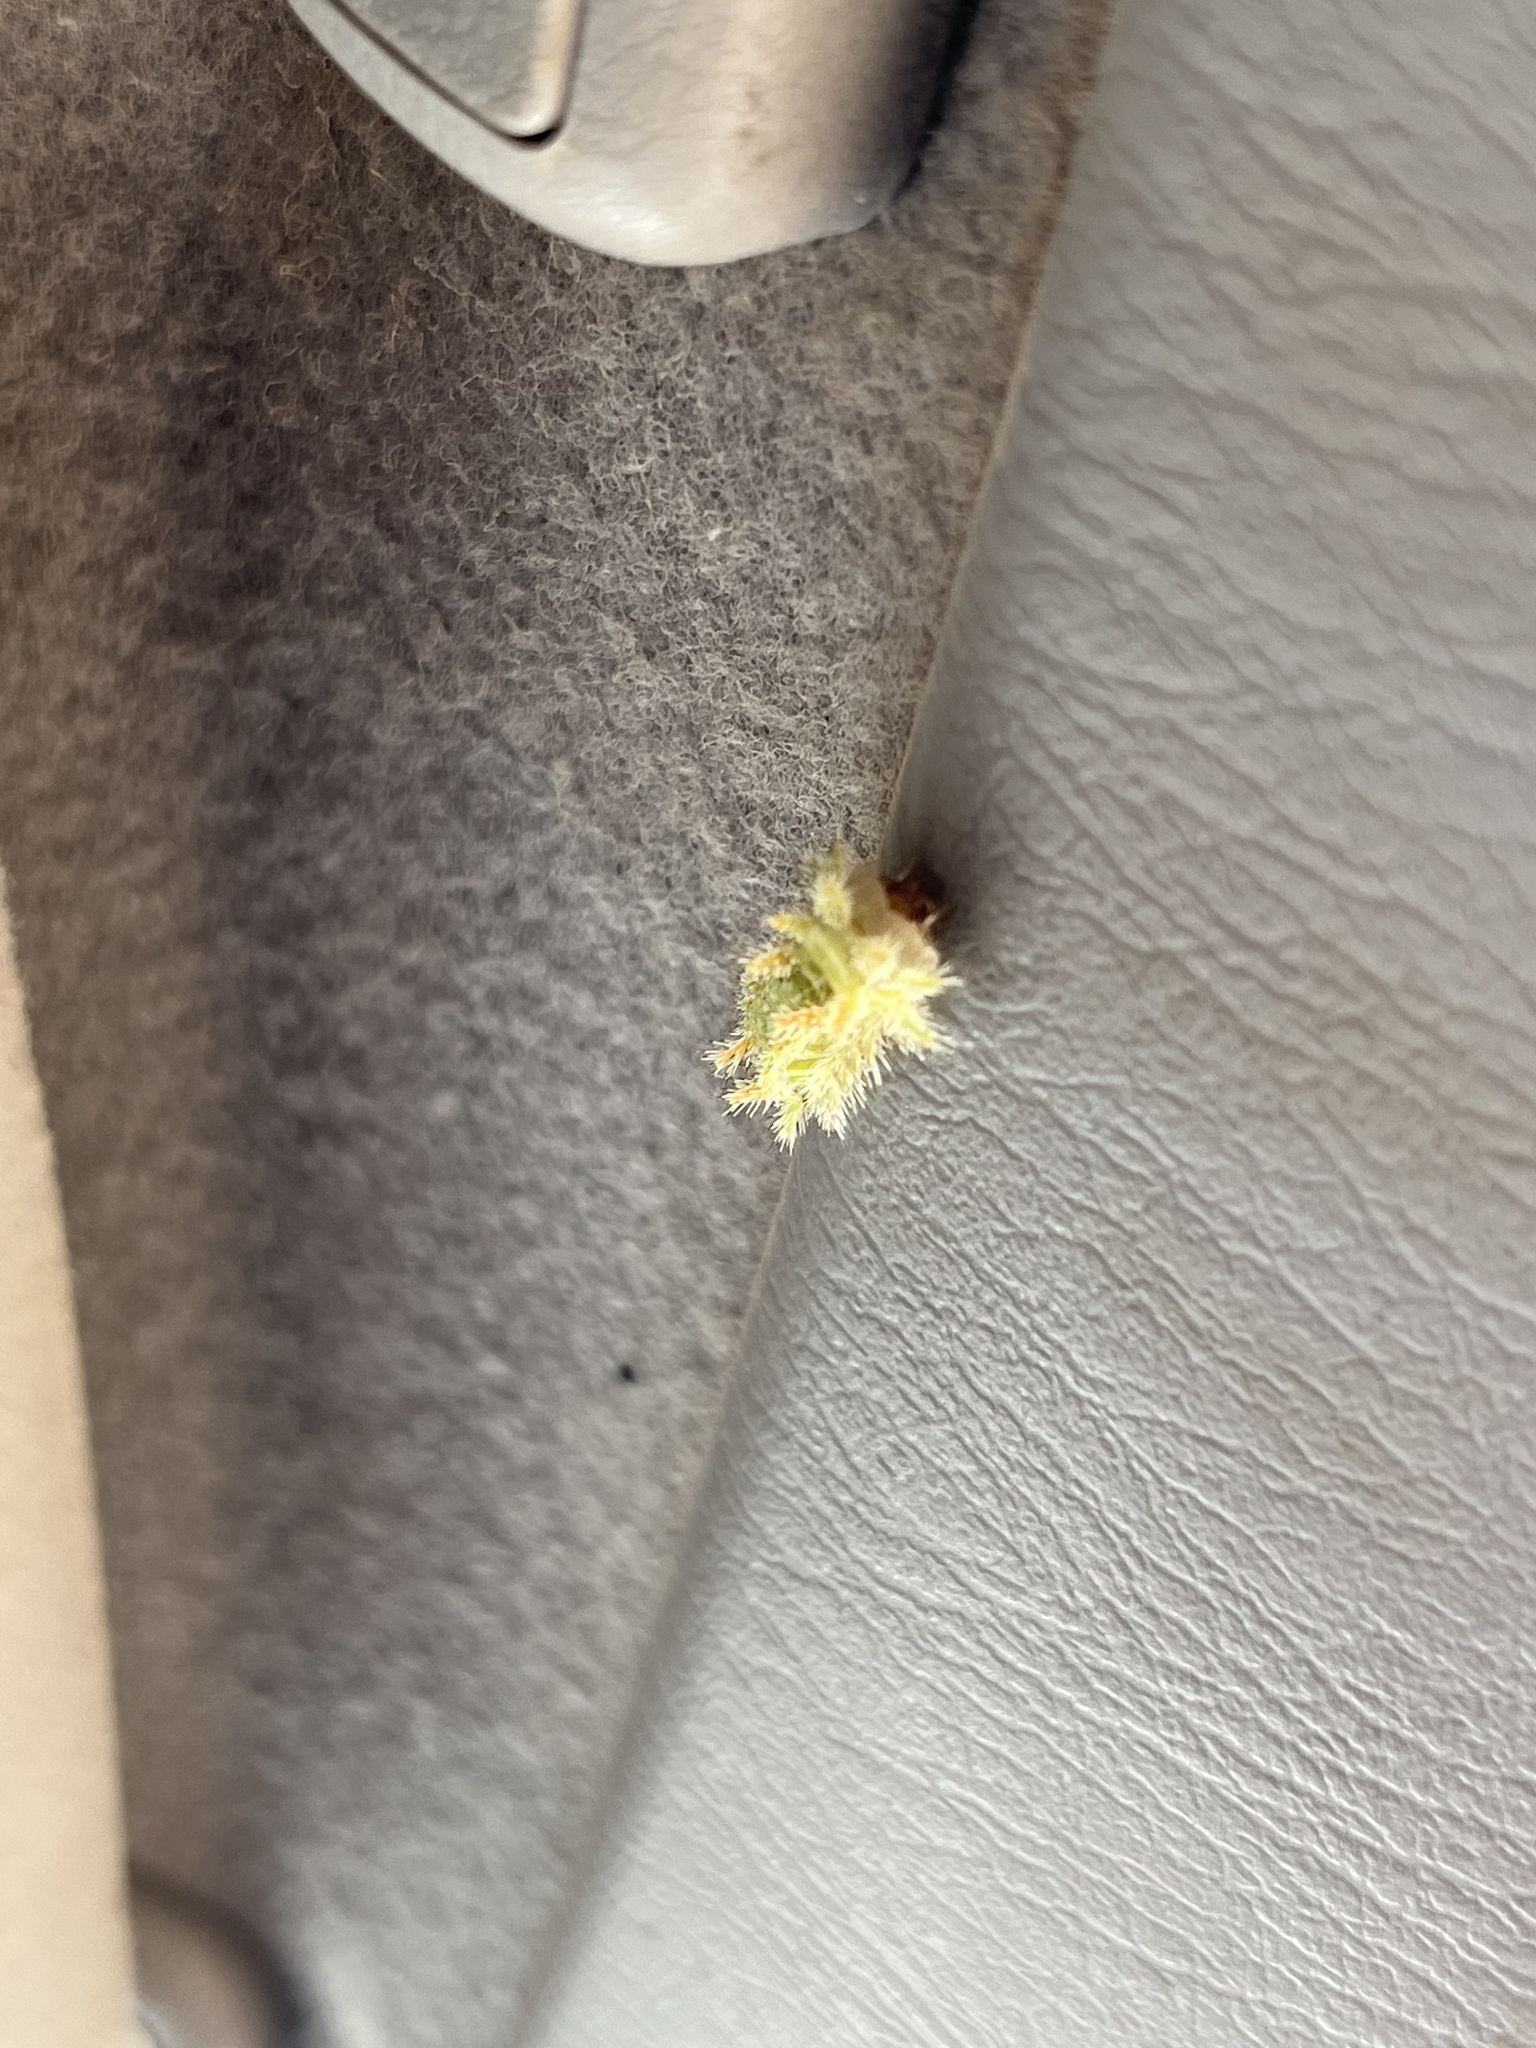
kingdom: Animalia
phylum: Arthropoda
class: Insecta
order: Lepidoptera
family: Limacodidae
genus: Euclea
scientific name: Euclea incisa
